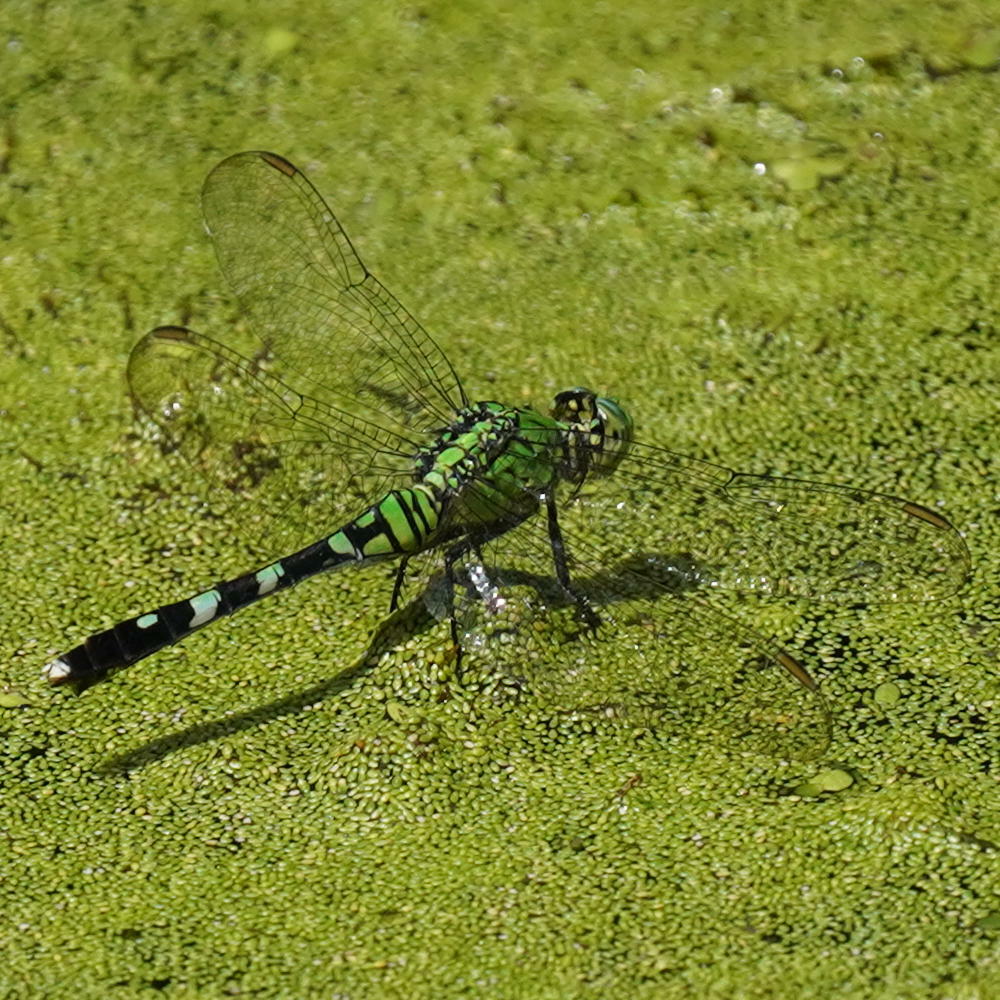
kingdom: Animalia
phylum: Arthropoda
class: Insecta
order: Odonata
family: Libellulidae
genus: Erythemis
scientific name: Erythemis simplicicollis
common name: Eastern pondhawk
